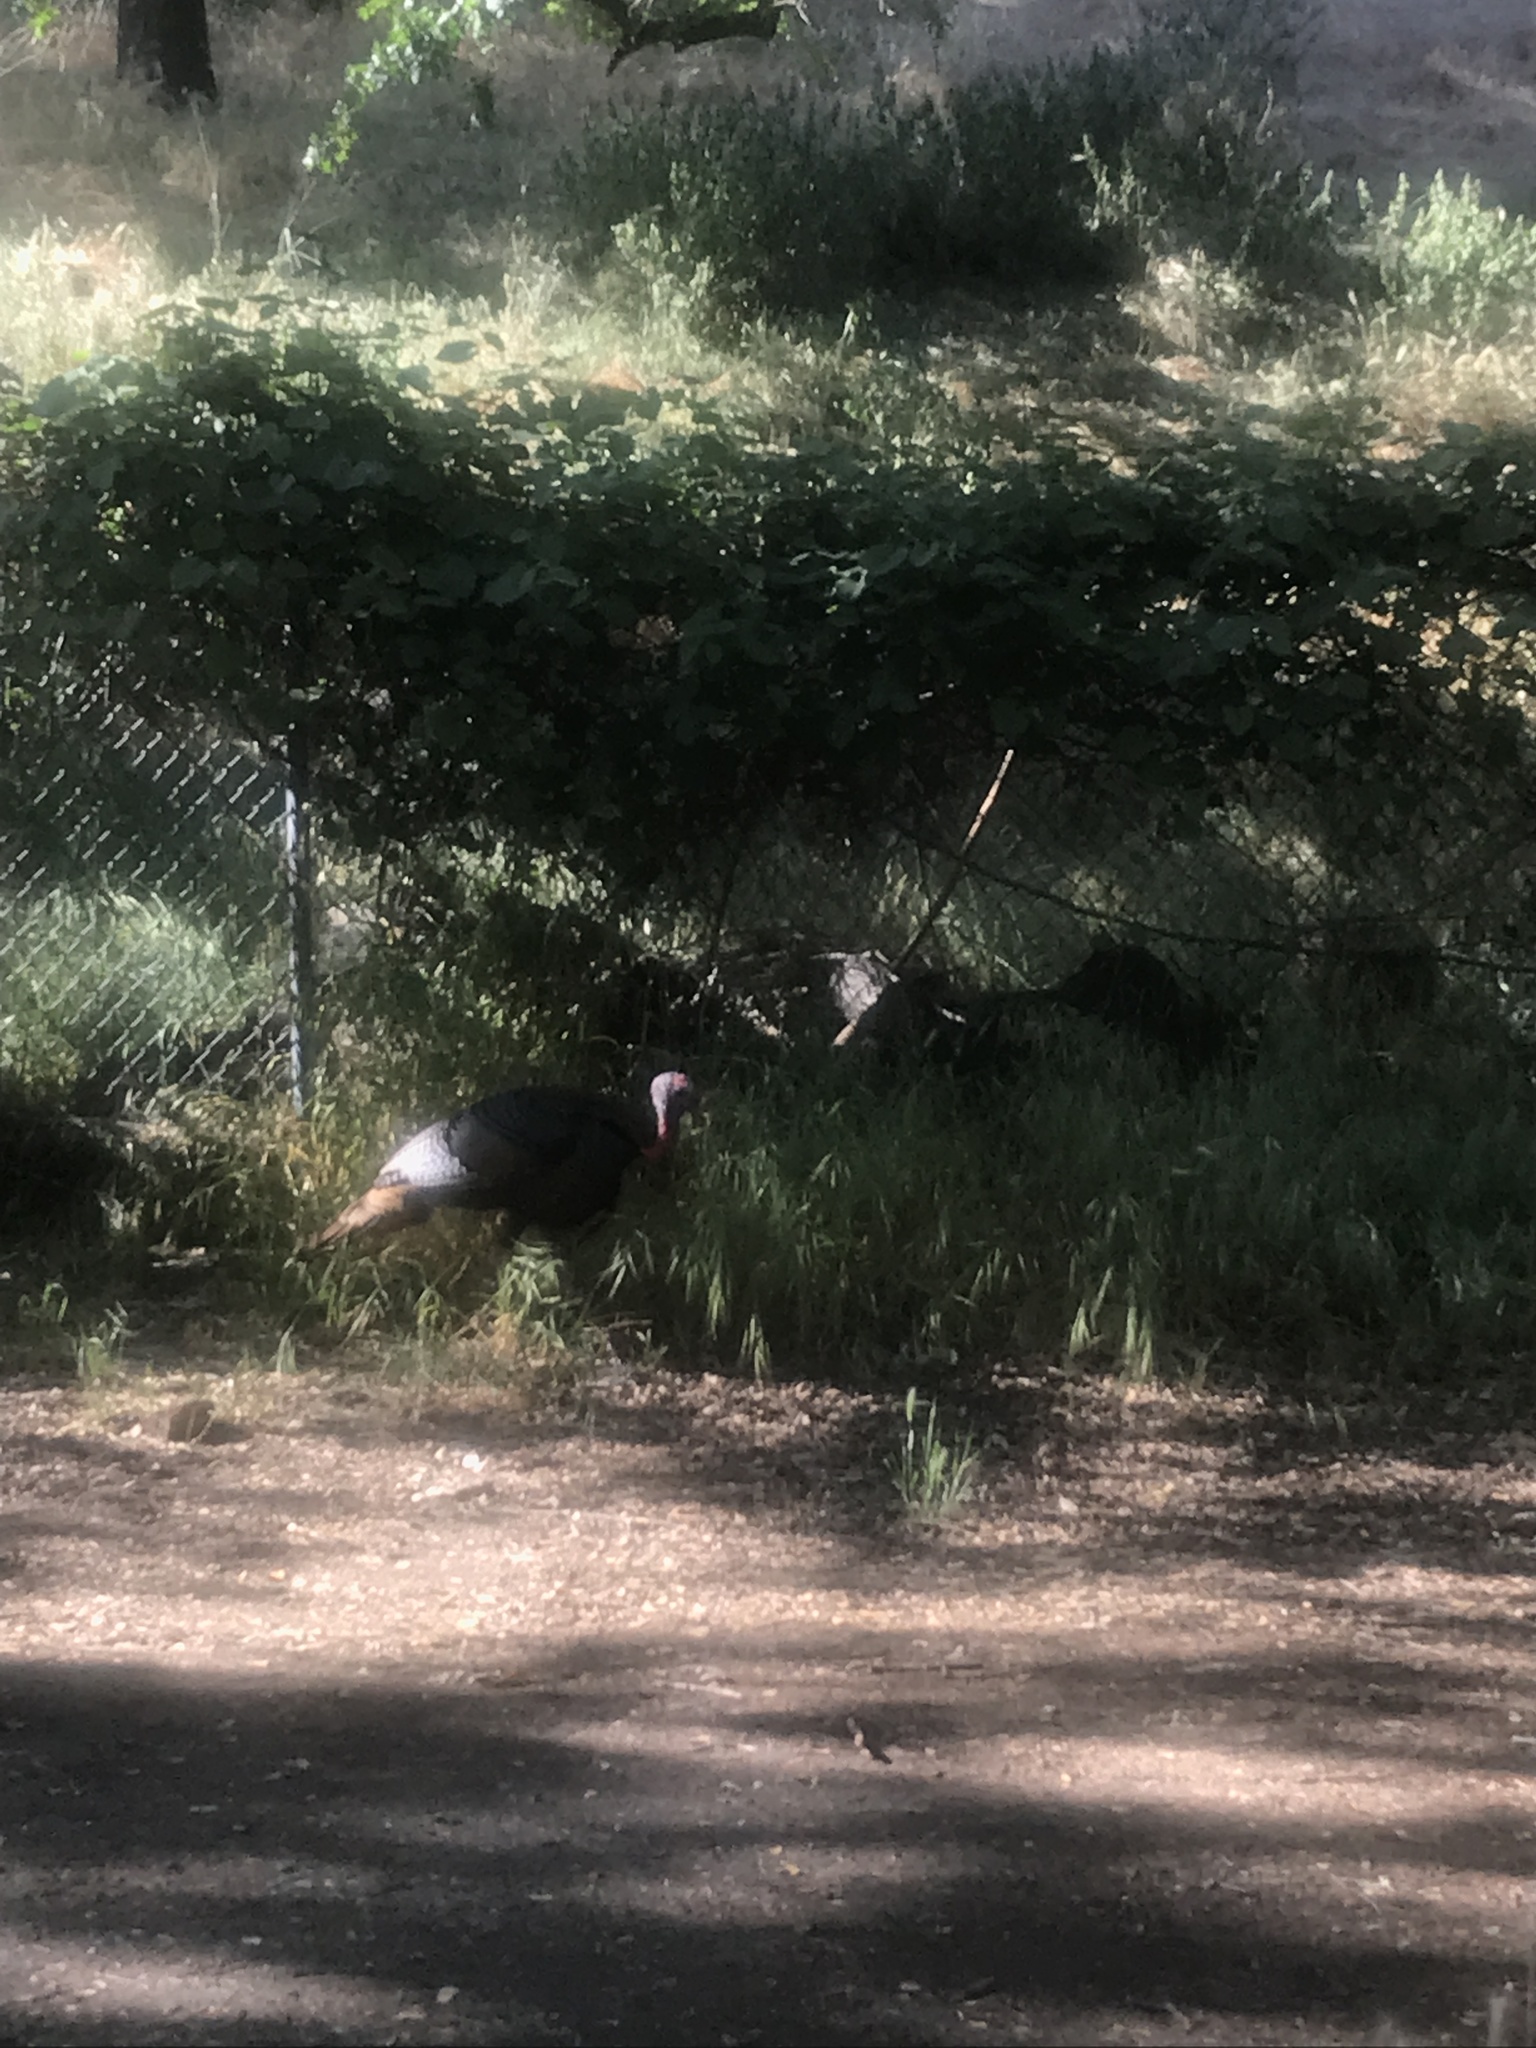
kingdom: Animalia
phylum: Chordata
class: Aves
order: Galliformes
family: Phasianidae
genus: Meleagris
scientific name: Meleagris gallopavo
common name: Wild turkey
